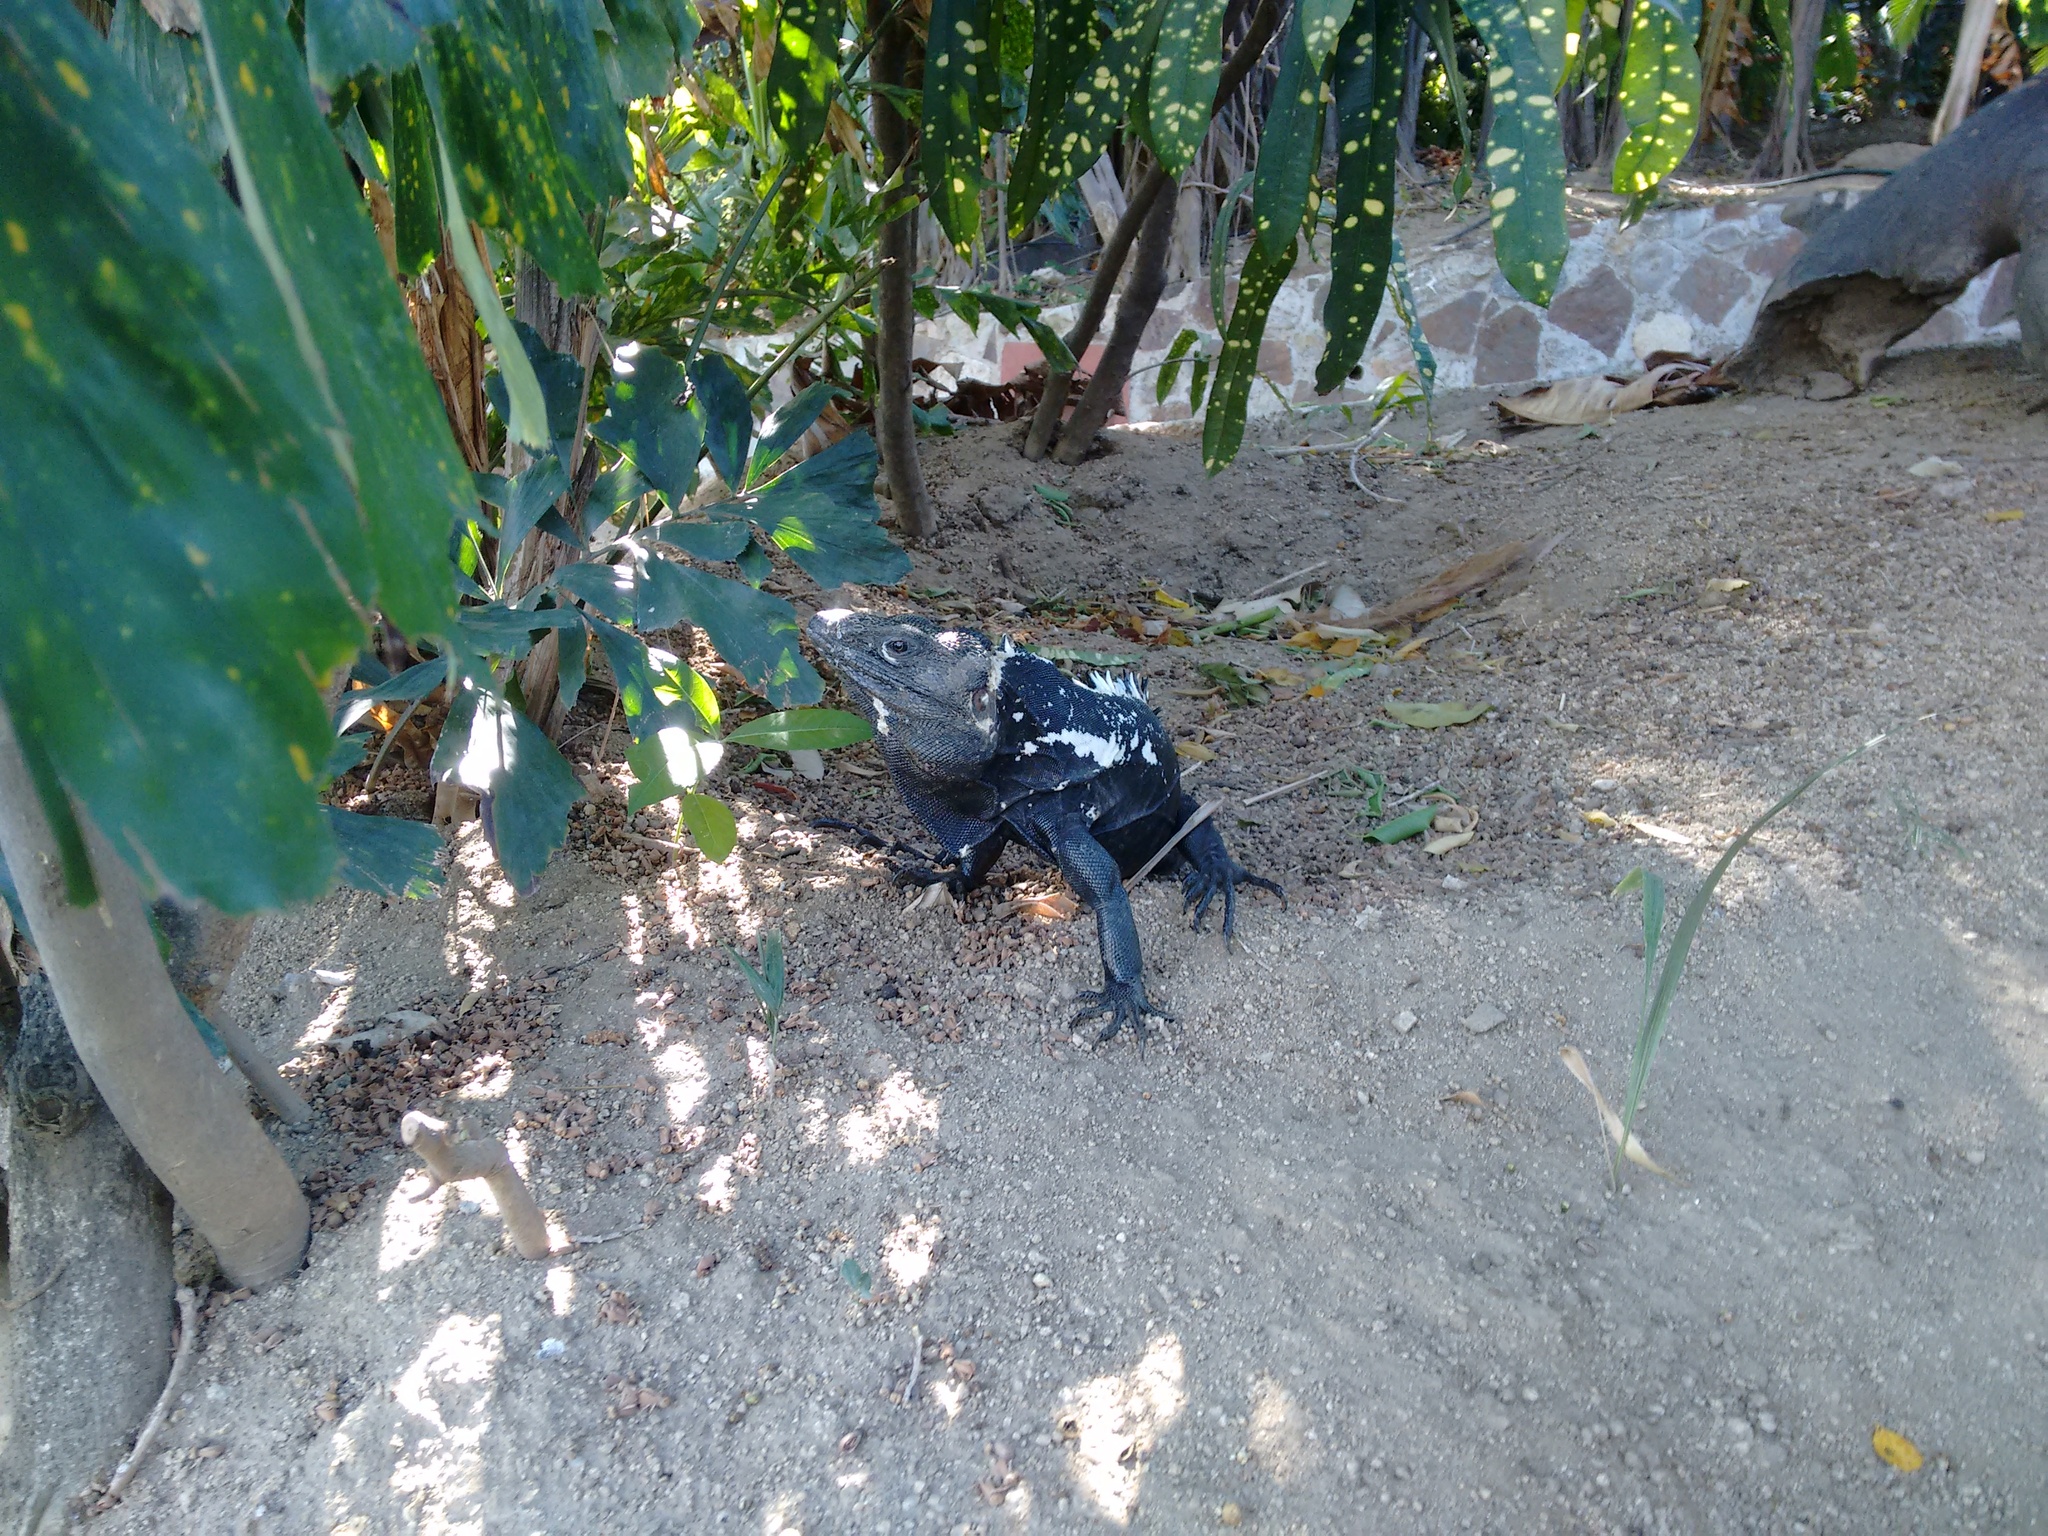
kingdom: Animalia
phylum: Chordata
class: Squamata
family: Iguanidae
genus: Ctenosaura
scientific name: Ctenosaura pectinata
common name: Guerreran spiny-tailed iguana
